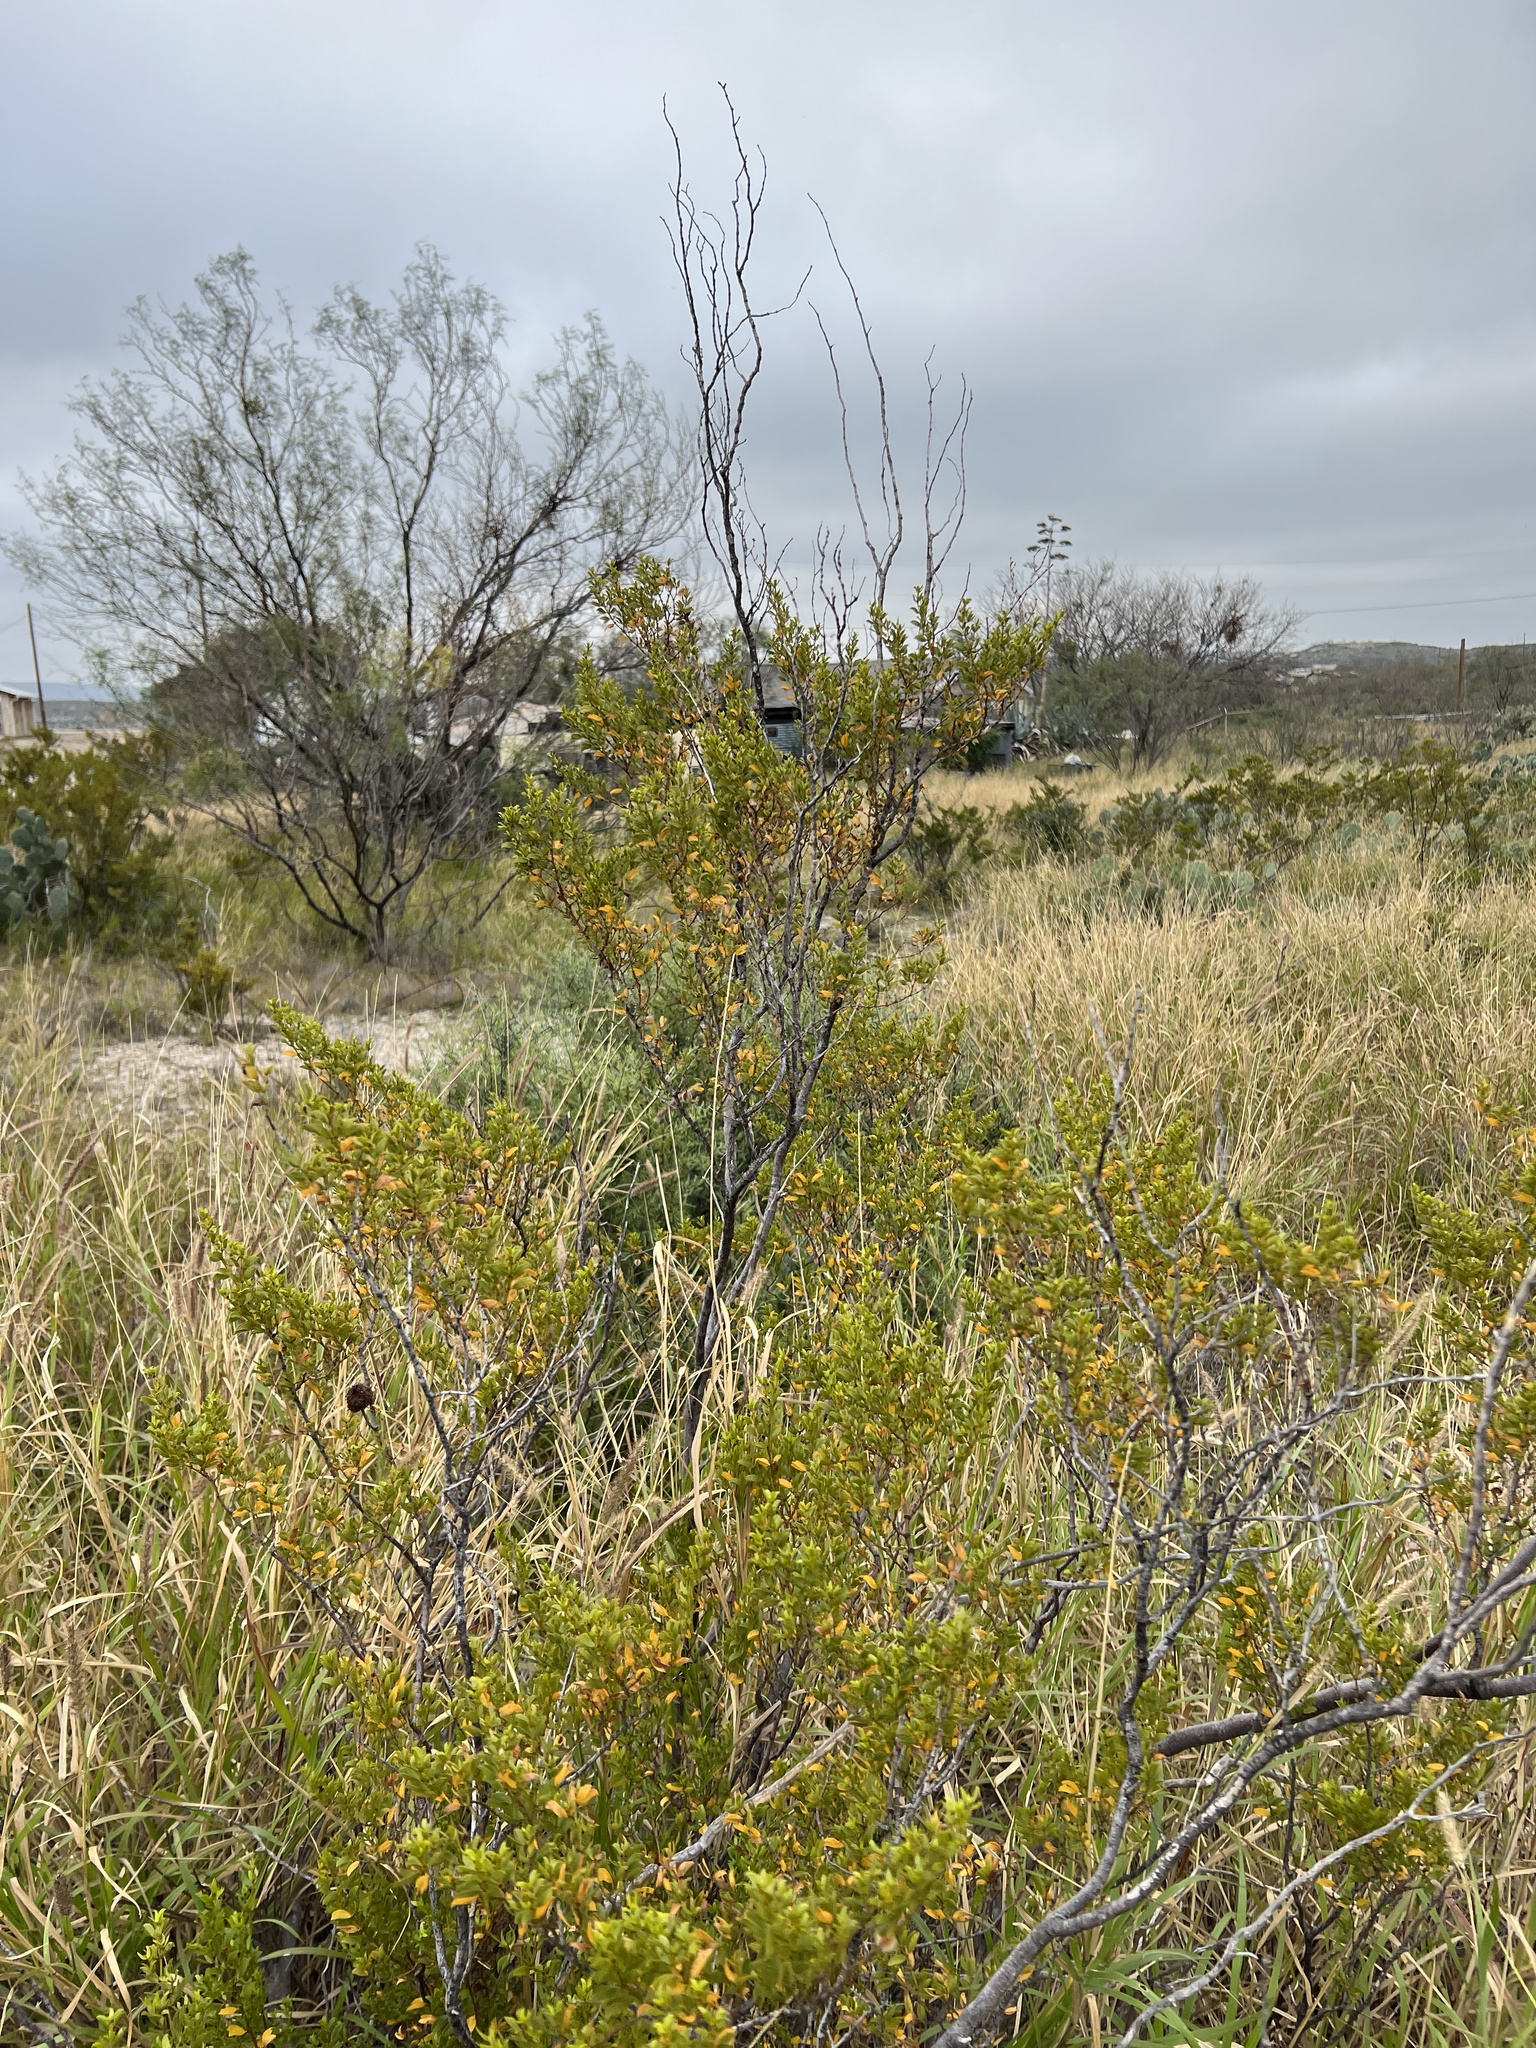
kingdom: Plantae
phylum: Tracheophyta
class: Magnoliopsida
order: Zygophyllales
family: Zygophyllaceae
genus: Larrea
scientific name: Larrea tridentata
